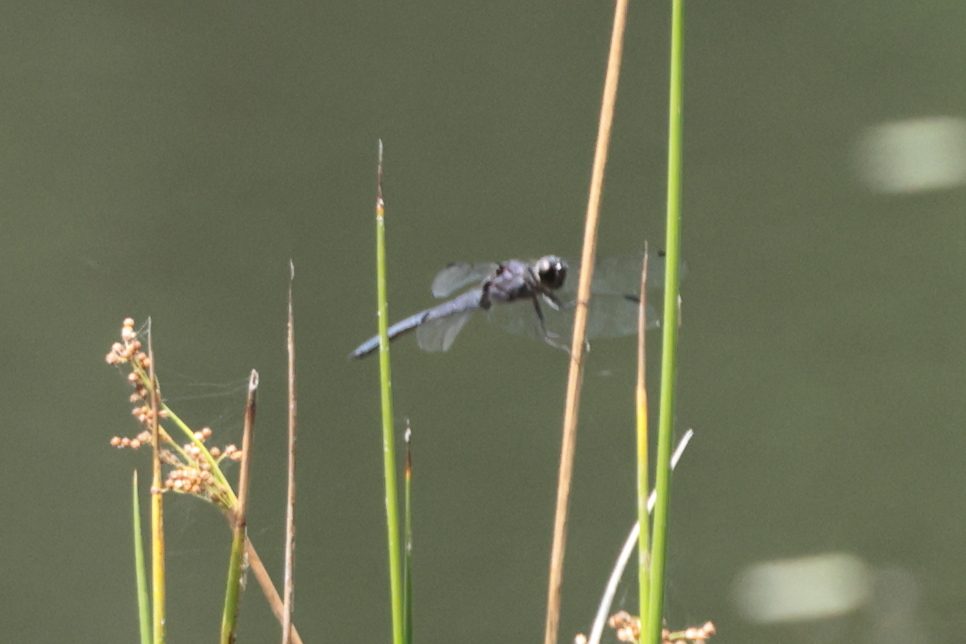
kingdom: Animalia
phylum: Arthropoda
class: Insecta
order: Odonata
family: Libellulidae
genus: Libellula
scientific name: Libellula incesta
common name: Slaty skimmer
